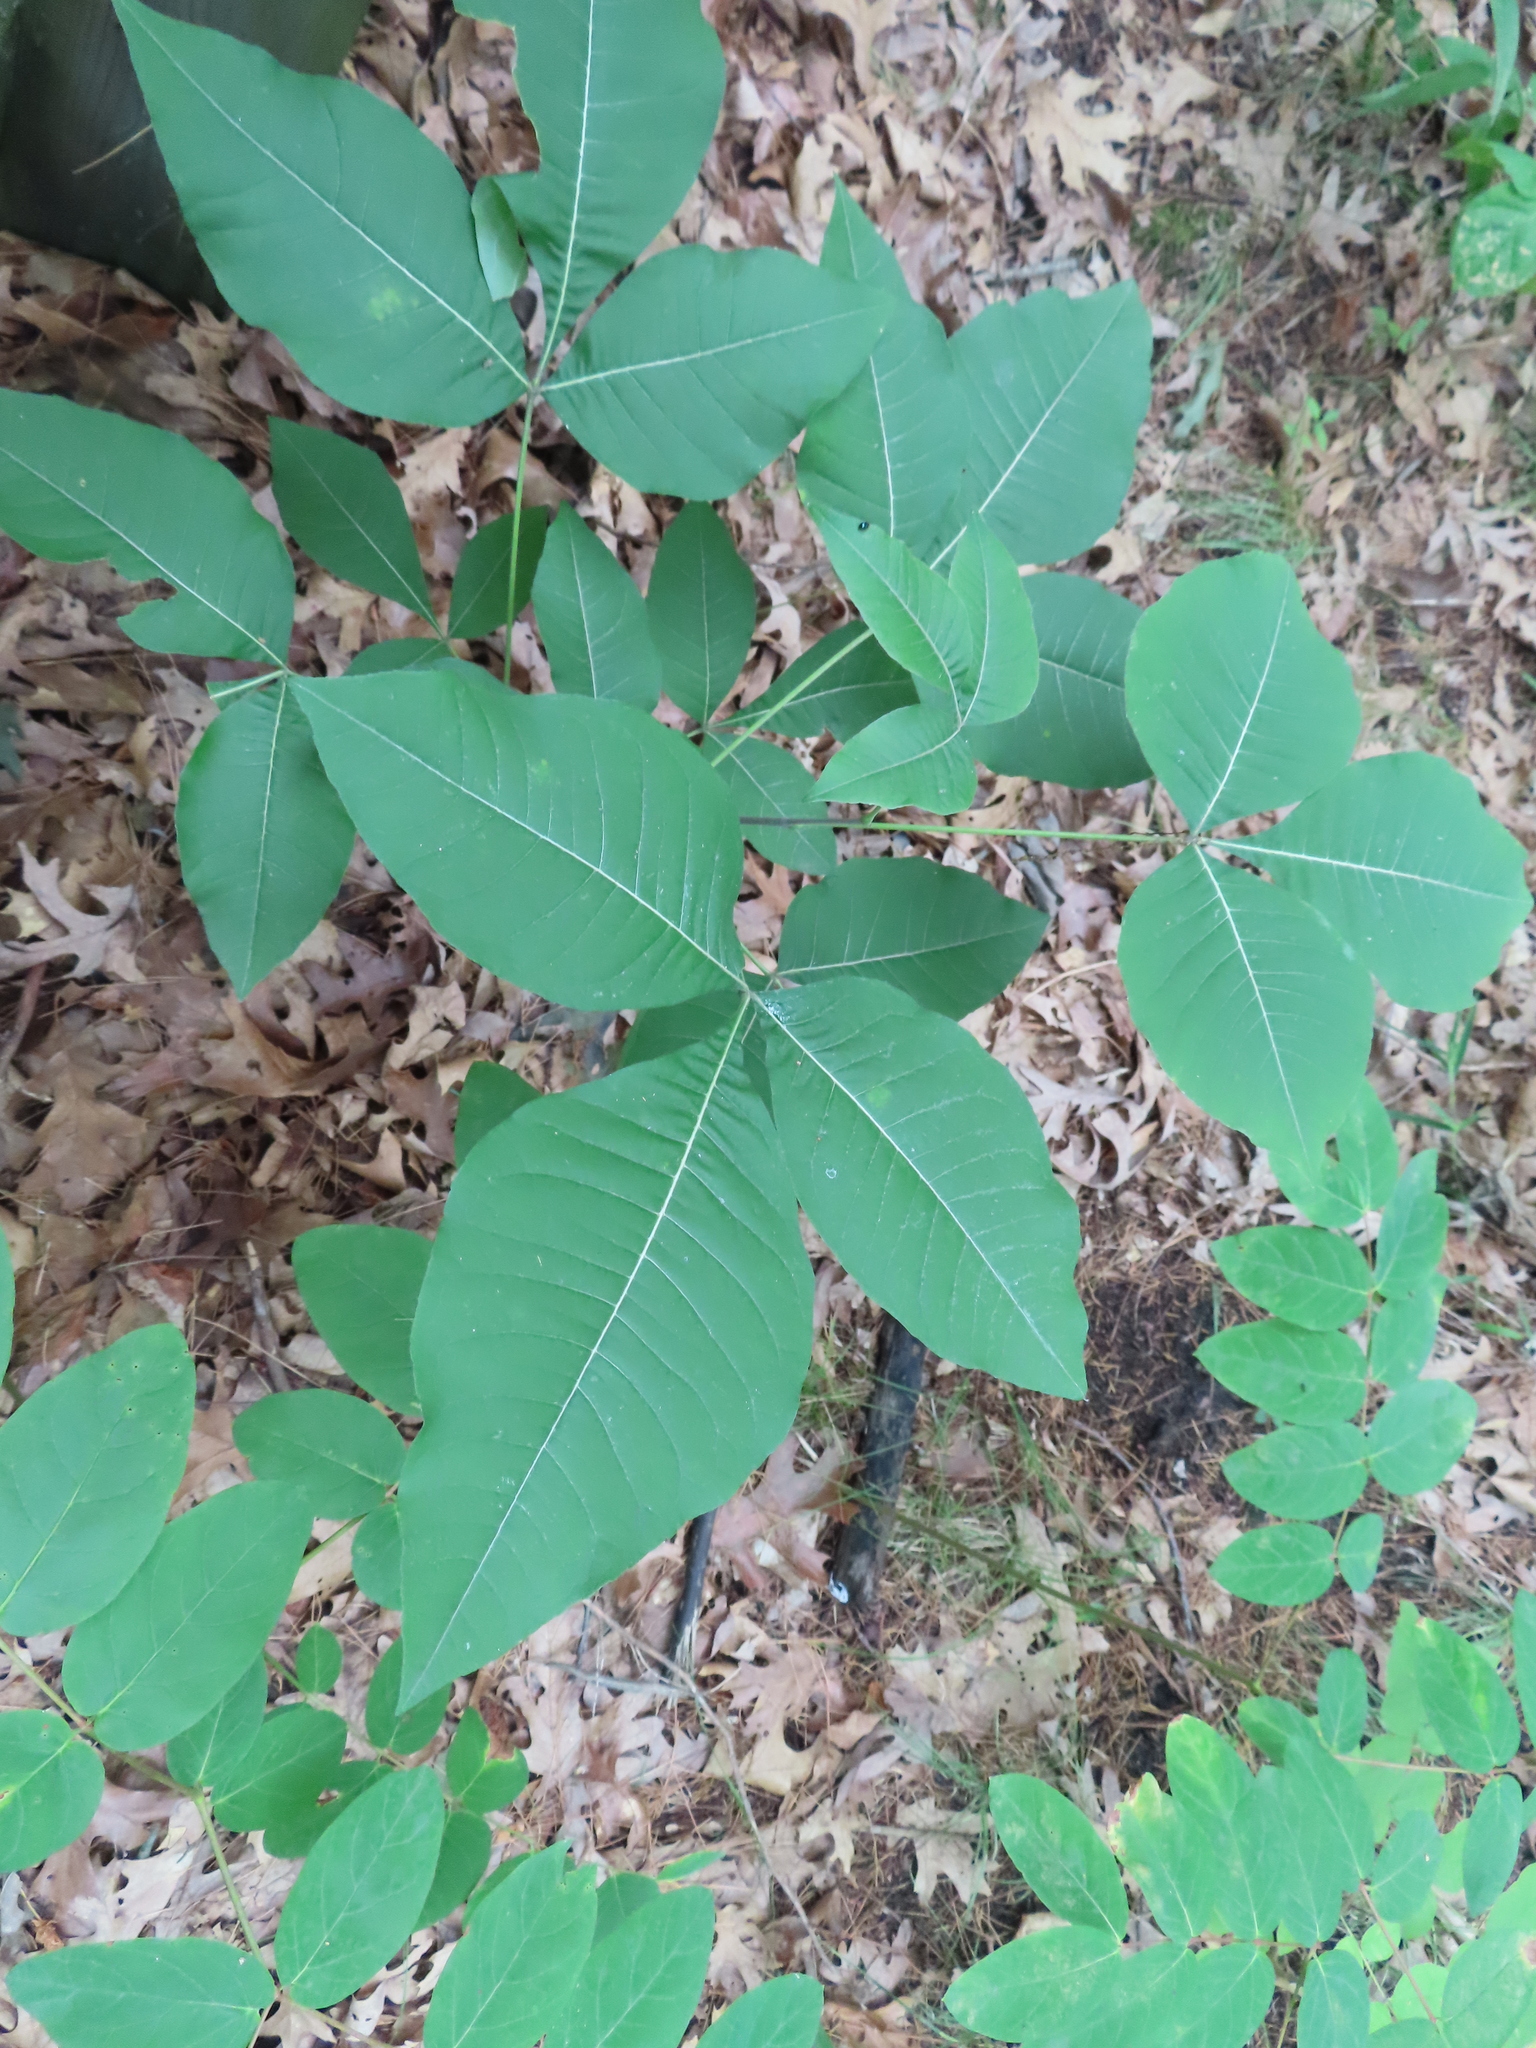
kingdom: Plantae
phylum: Tracheophyta
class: Magnoliopsida
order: Sapindales
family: Rutaceae
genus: Ptelea
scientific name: Ptelea trifoliata
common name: Common hop-tree
